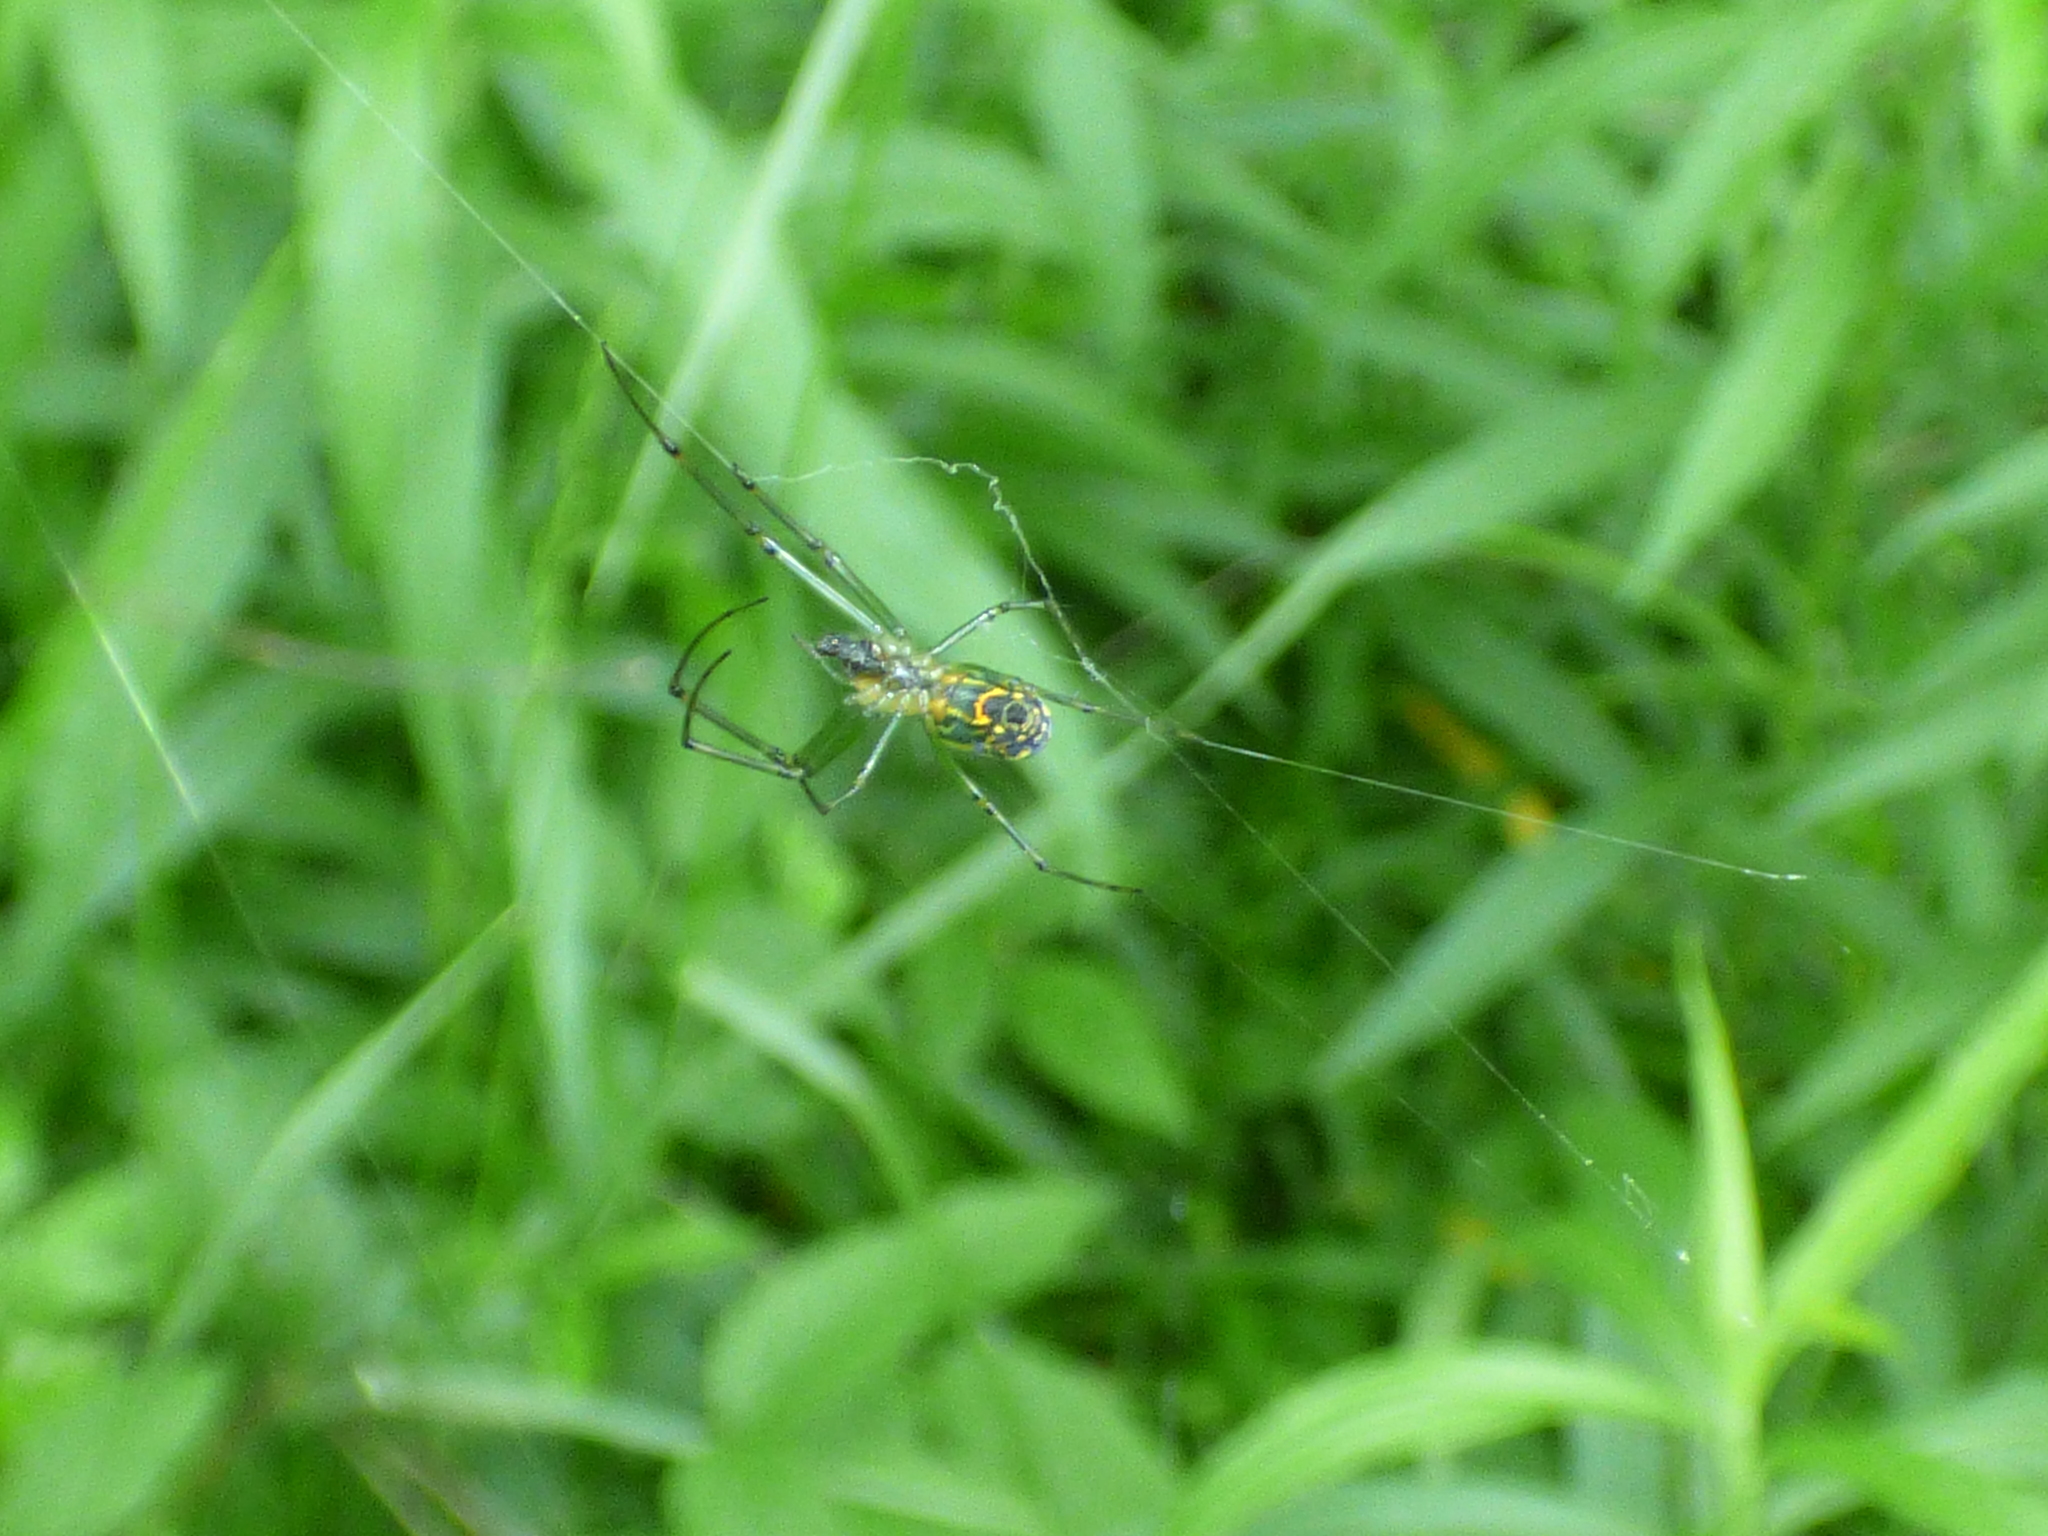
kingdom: Animalia
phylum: Arthropoda
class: Arachnida
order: Araneae
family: Tetragnathidae
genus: Leucauge
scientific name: Leucauge venusta
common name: Longjawed orb weavers
